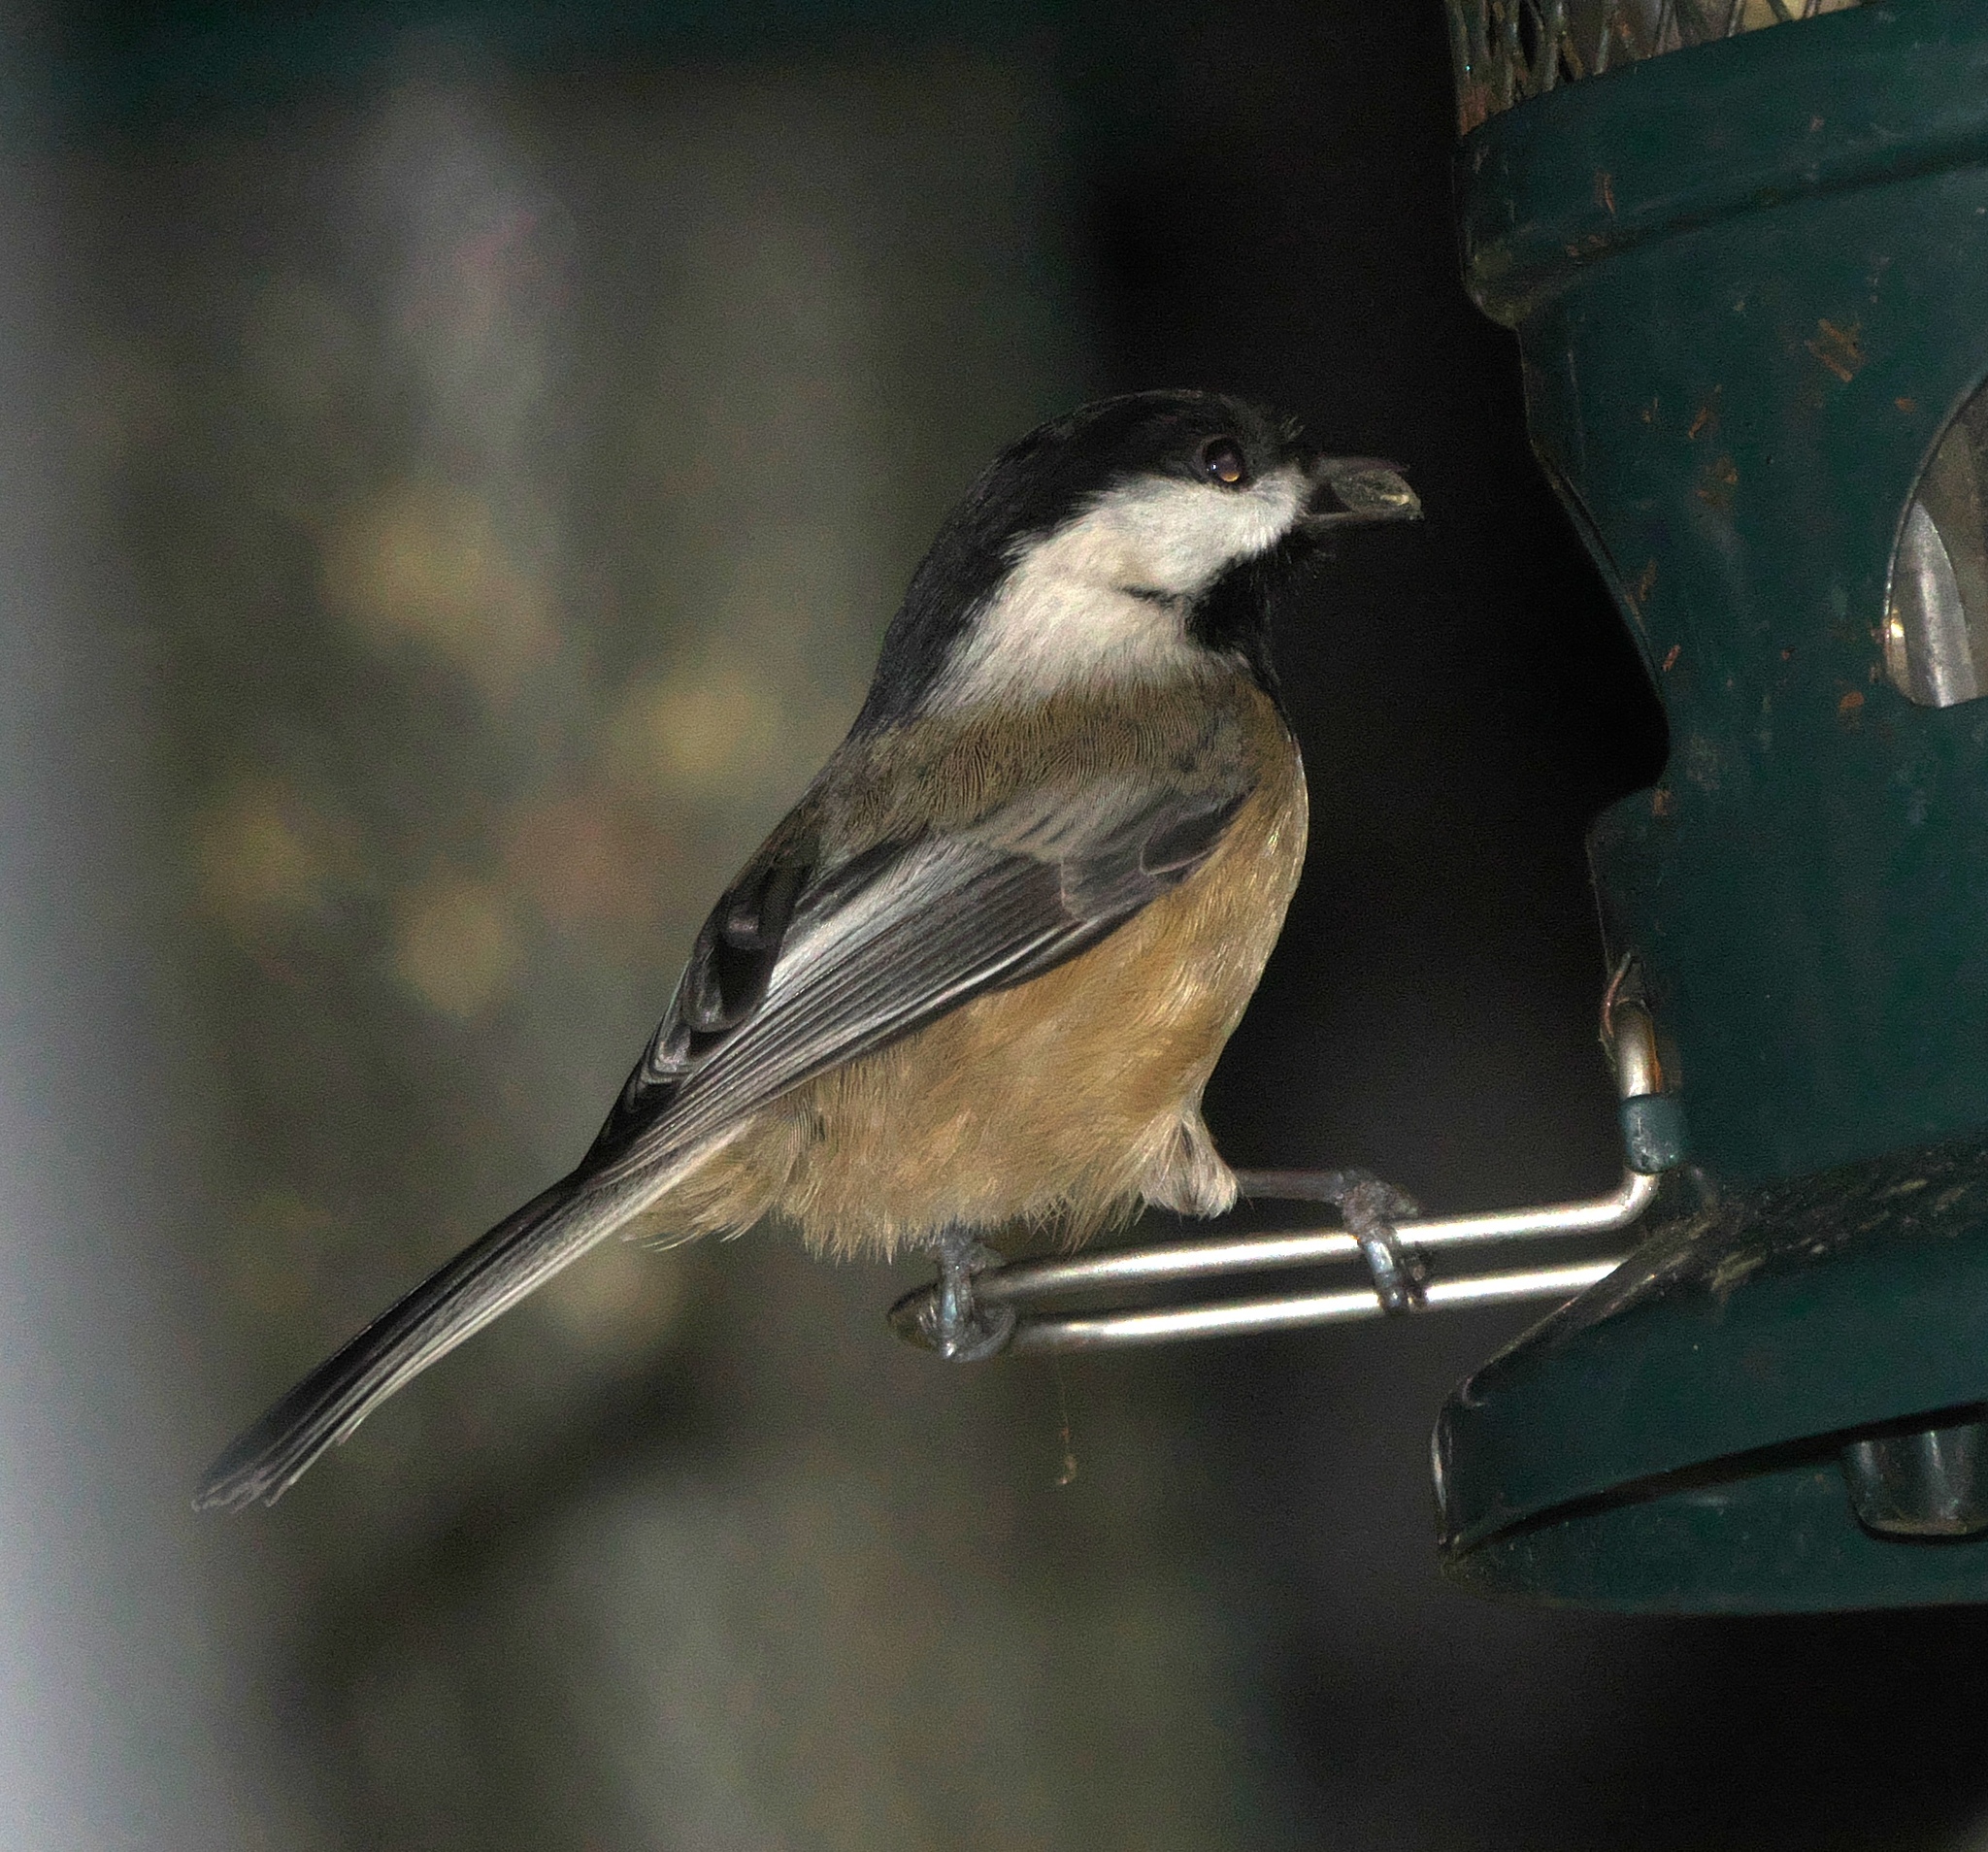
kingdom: Animalia
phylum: Chordata
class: Aves
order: Passeriformes
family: Paridae
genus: Poecile
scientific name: Poecile atricapillus
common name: Black-capped chickadee
